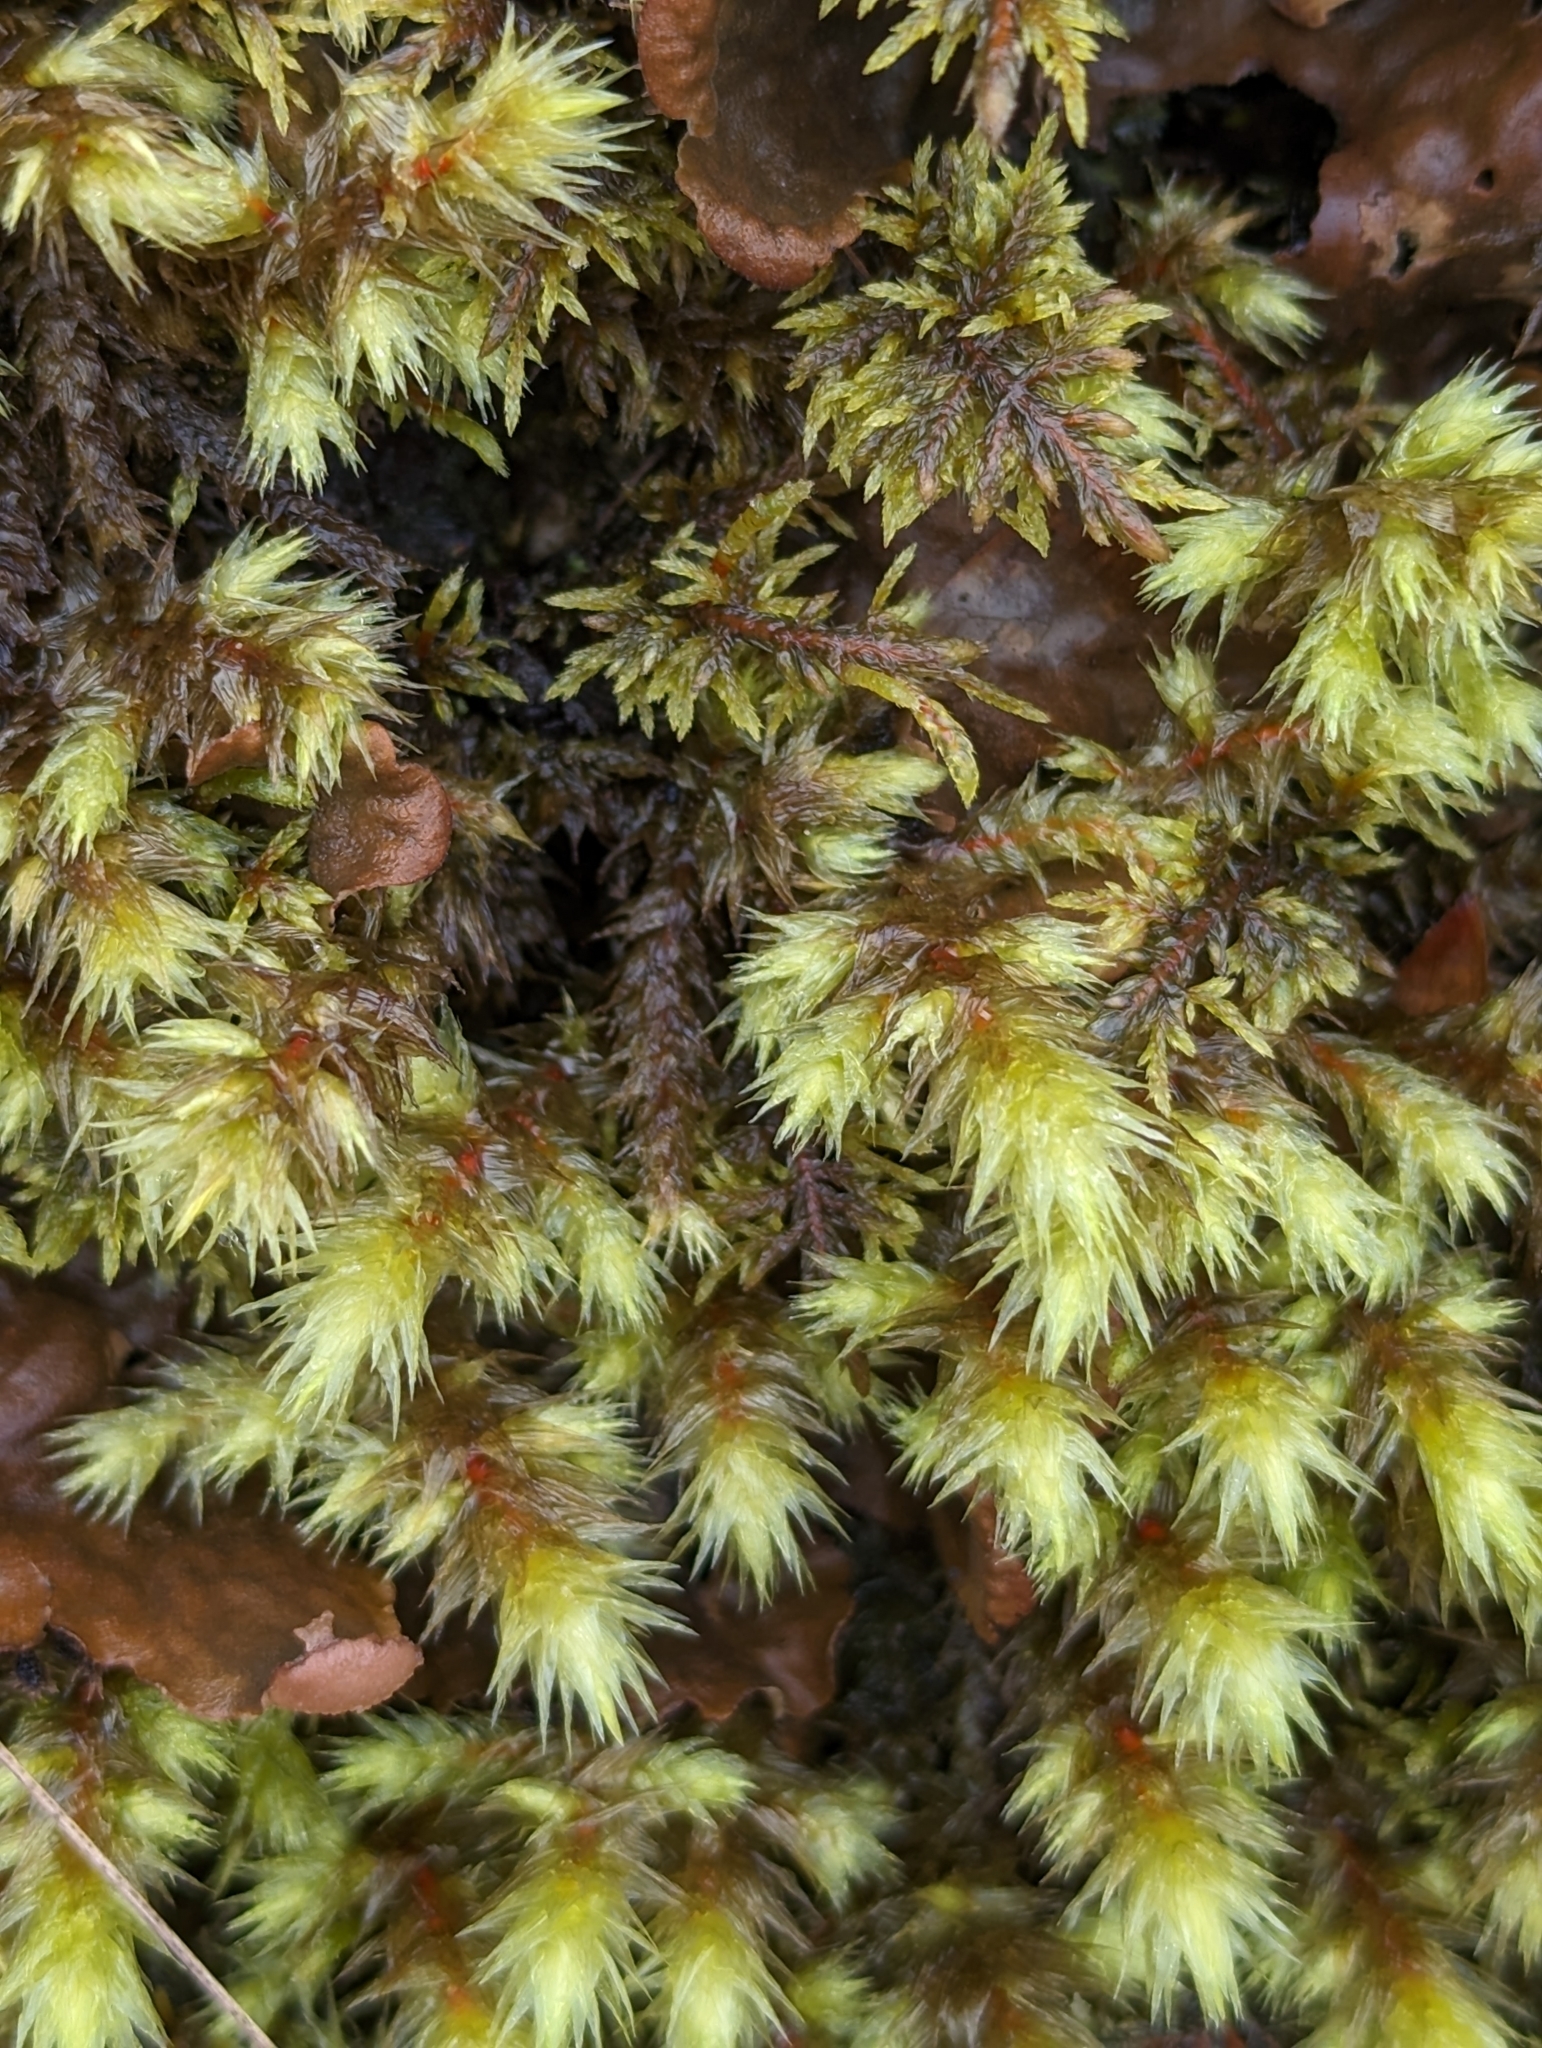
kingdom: Plantae
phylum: Bryophyta
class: Bryopsida
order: Hypnales
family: Hylocomiaceae
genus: Hylocomiadelphus
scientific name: Hylocomiadelphus triquetrus
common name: Rough goose neck moss
